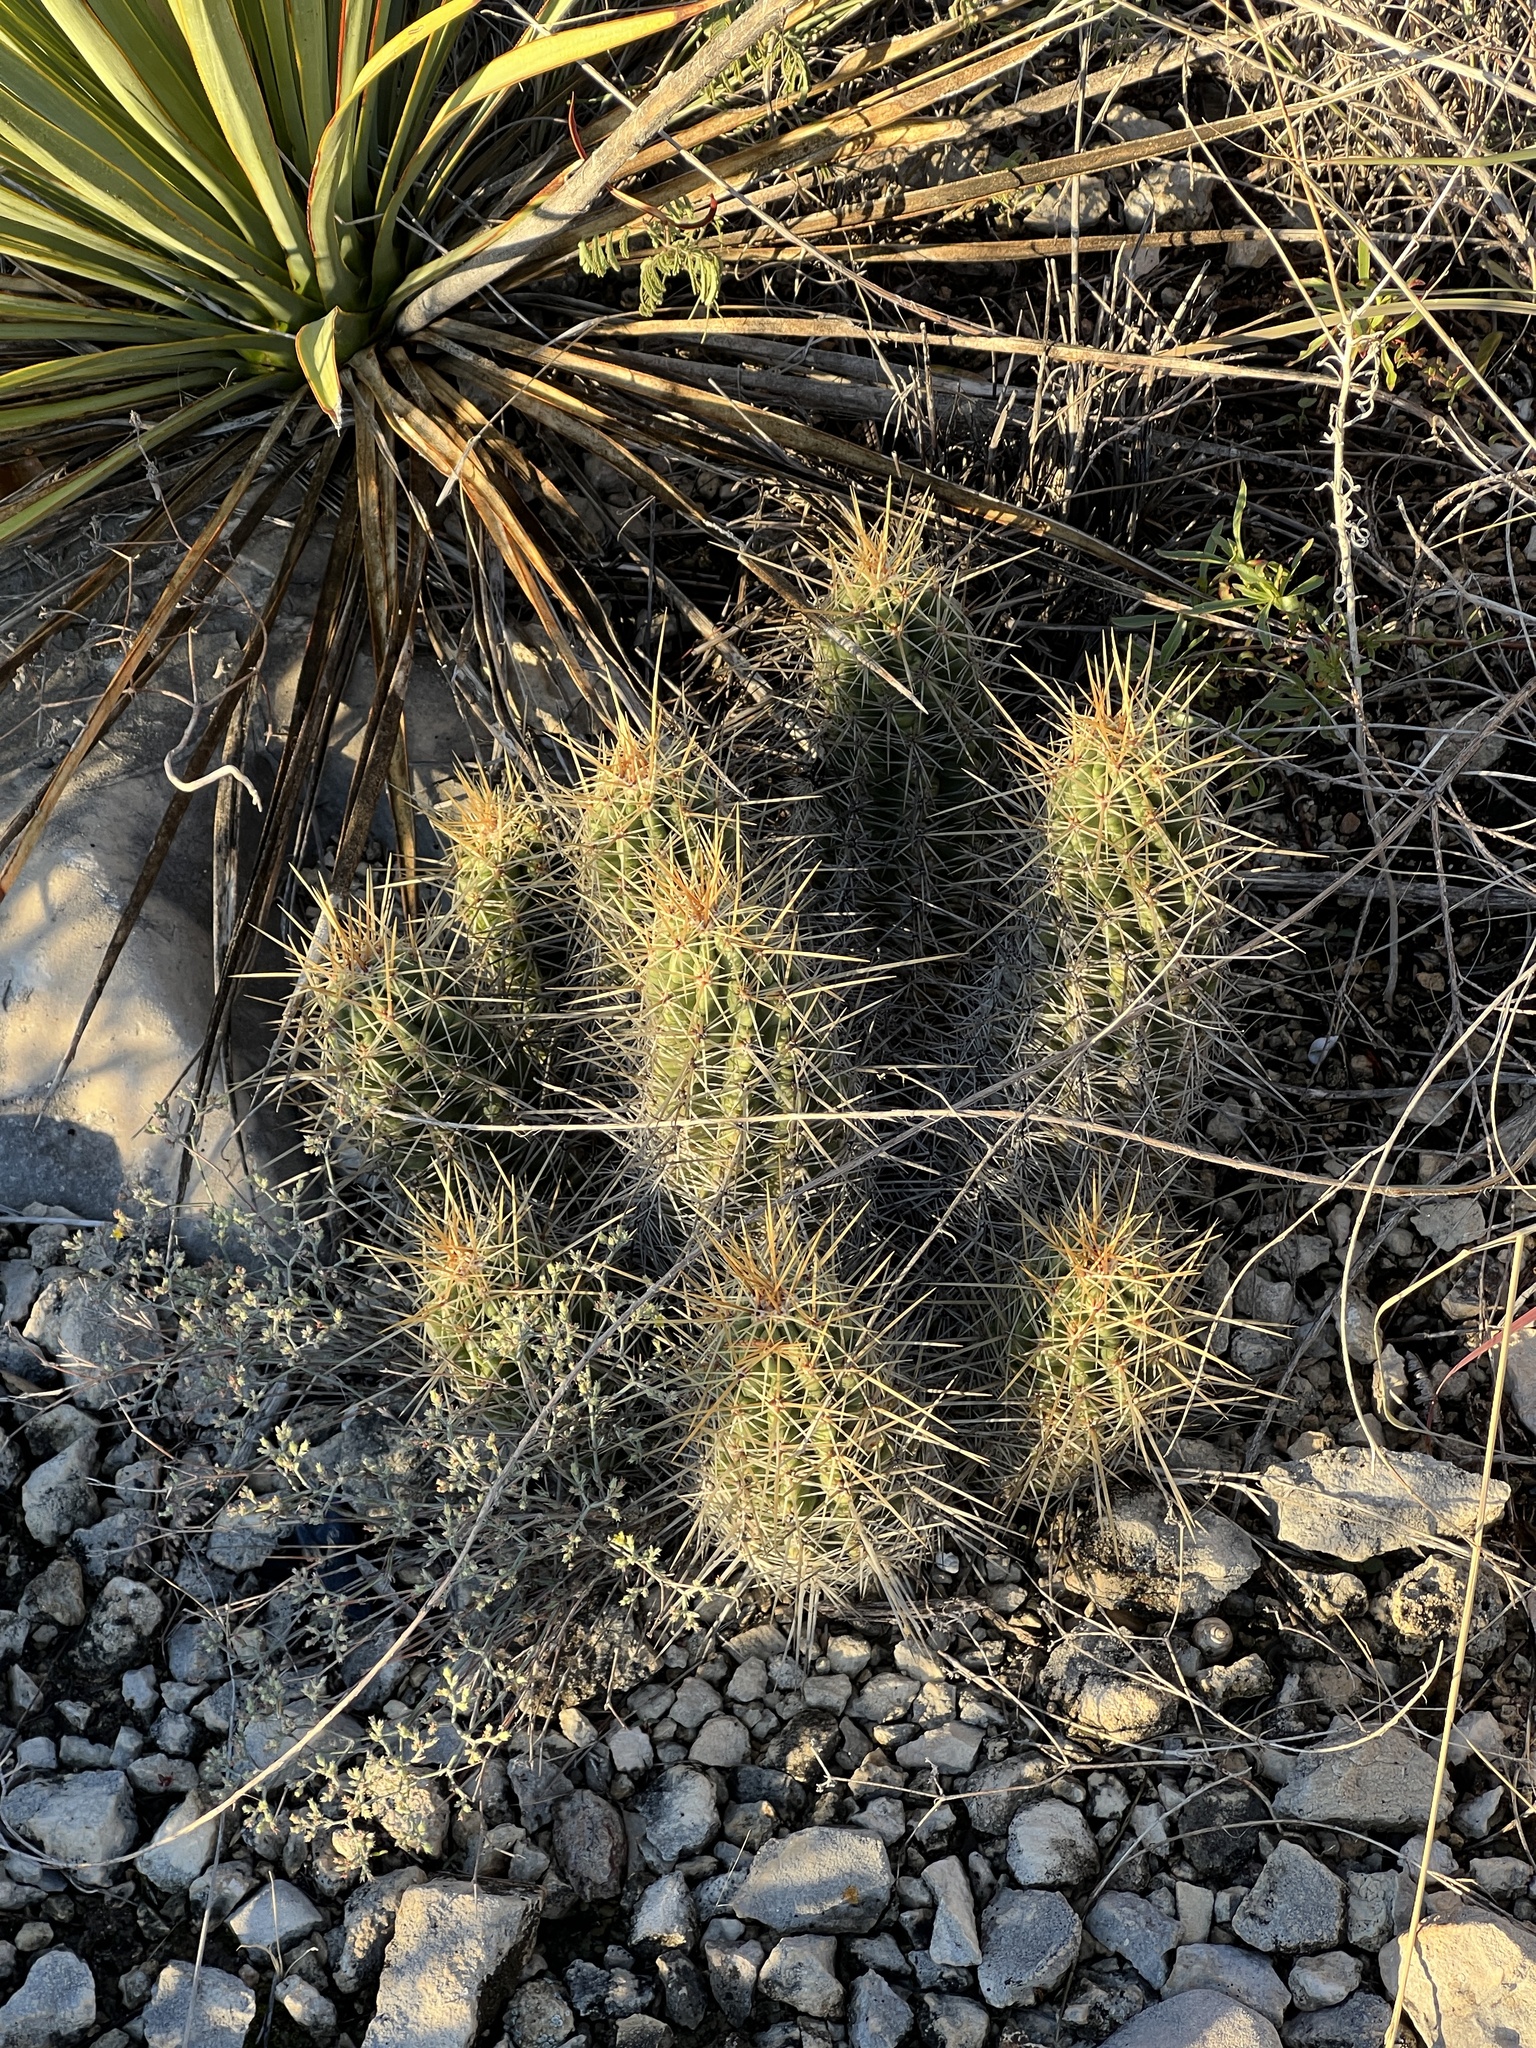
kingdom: Plantae
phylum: Tracheophyta
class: Magnoliopsida
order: Caryophyllales
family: Cactaceae
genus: Echinocereus
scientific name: Echinocereus enneacanthus
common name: Pitaya
